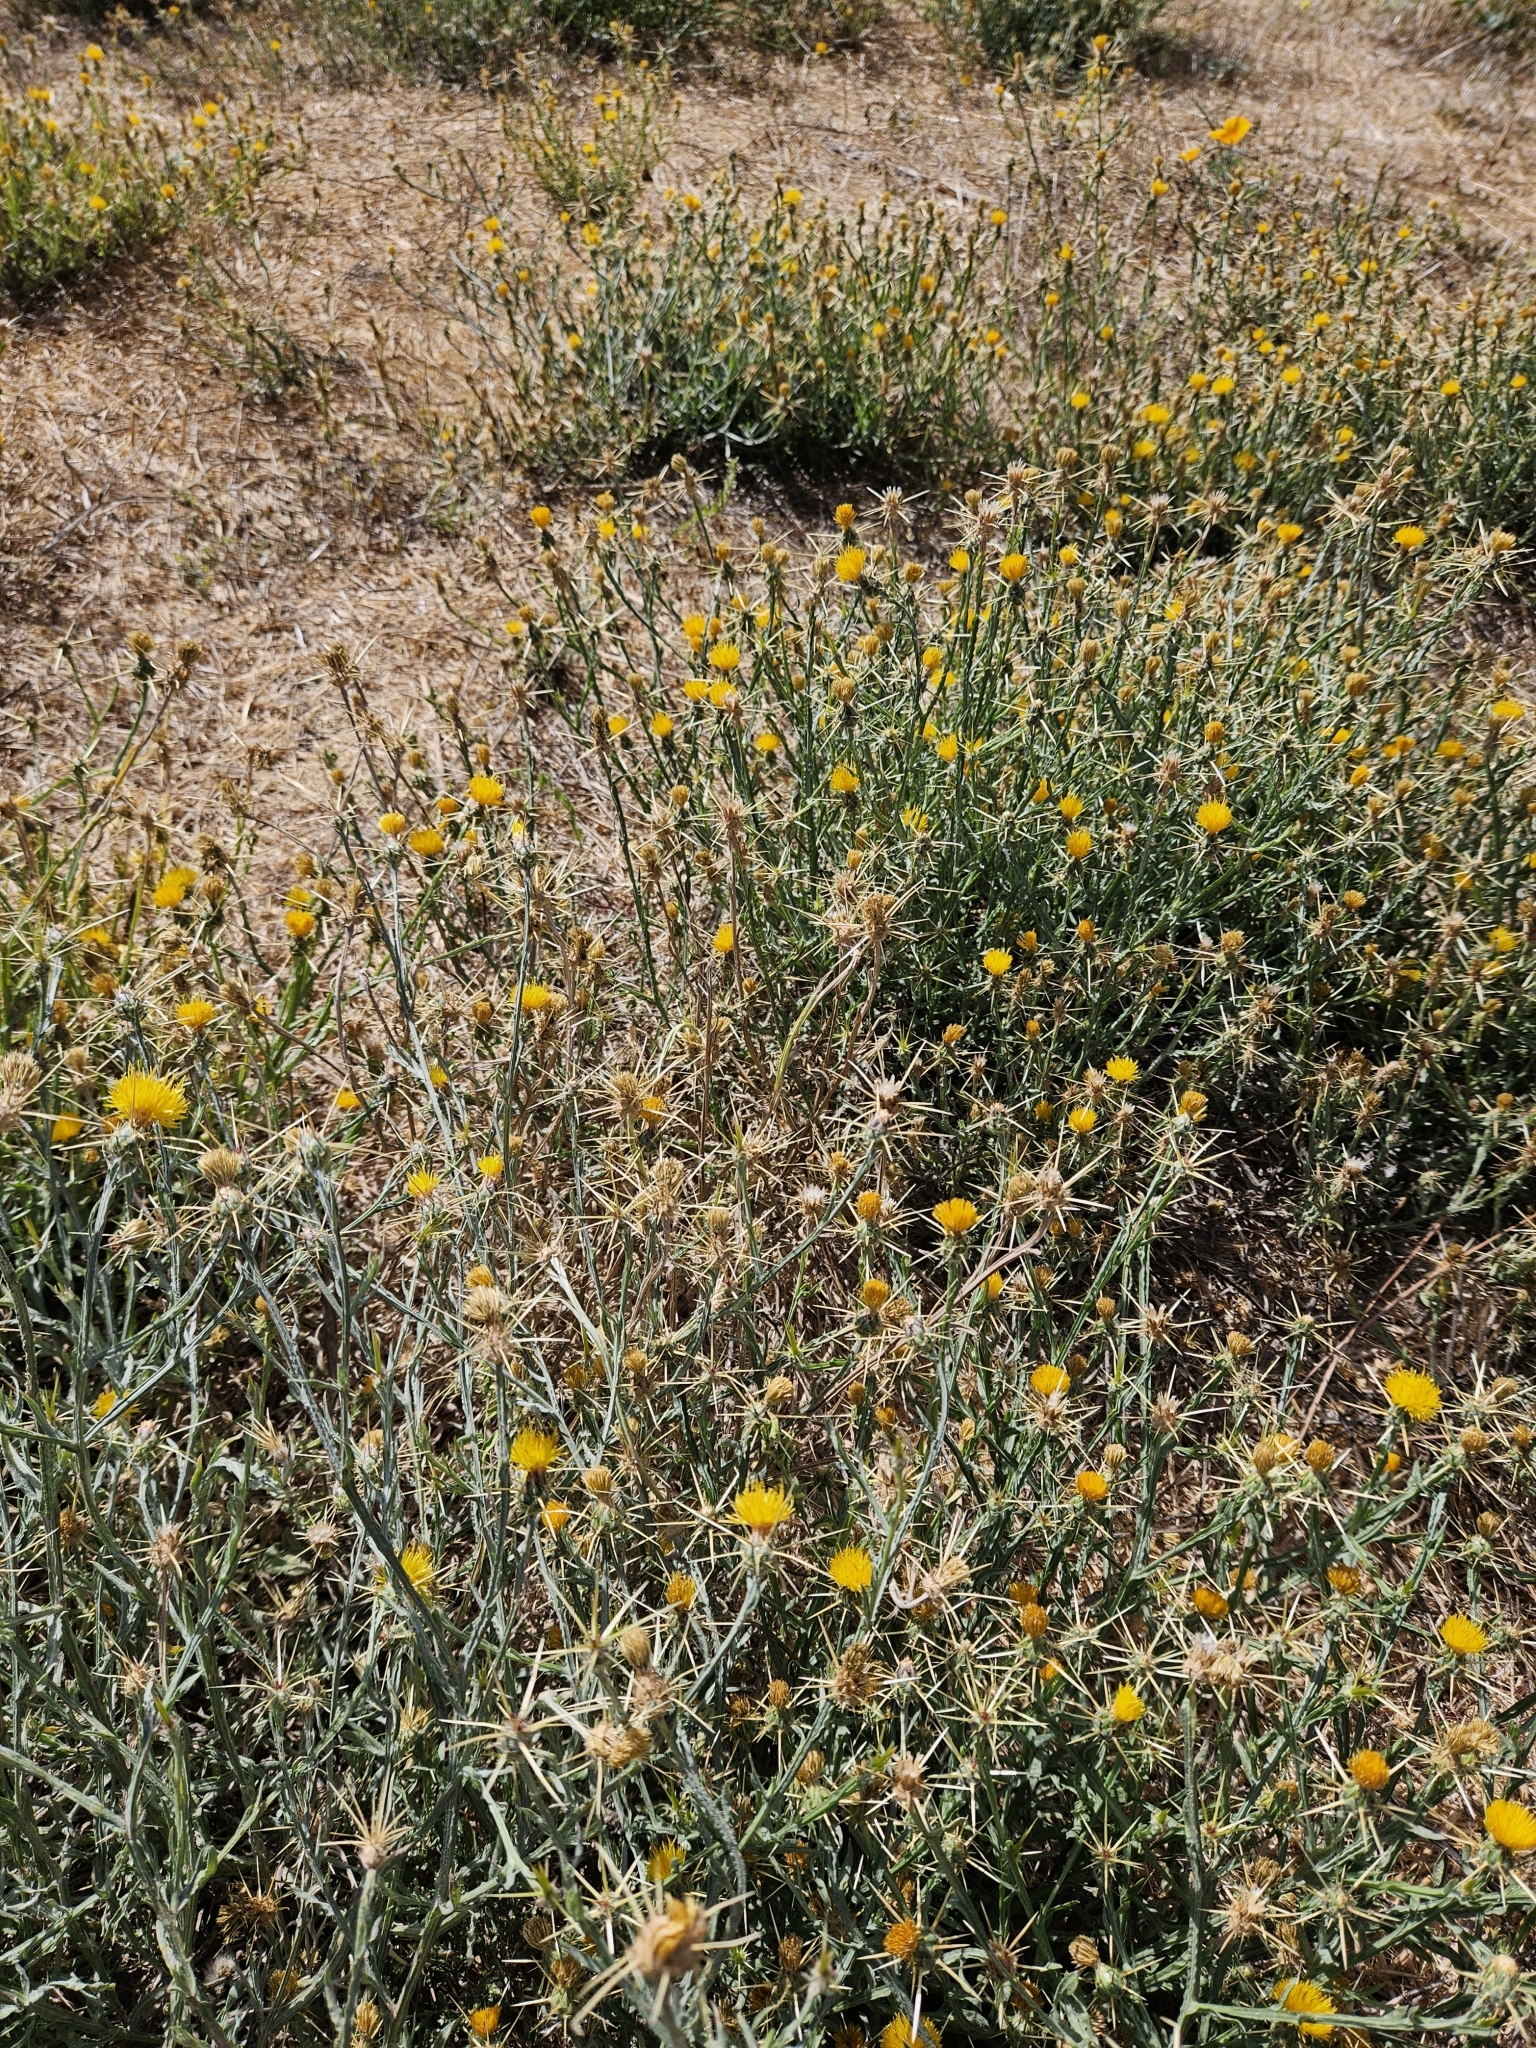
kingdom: Plantae
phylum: Tracheophyta
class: Magnoliopsida
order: Asterales
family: Asteraceae
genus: Centaurea
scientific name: Centaurea solstitialis
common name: Yellow star-thistle
